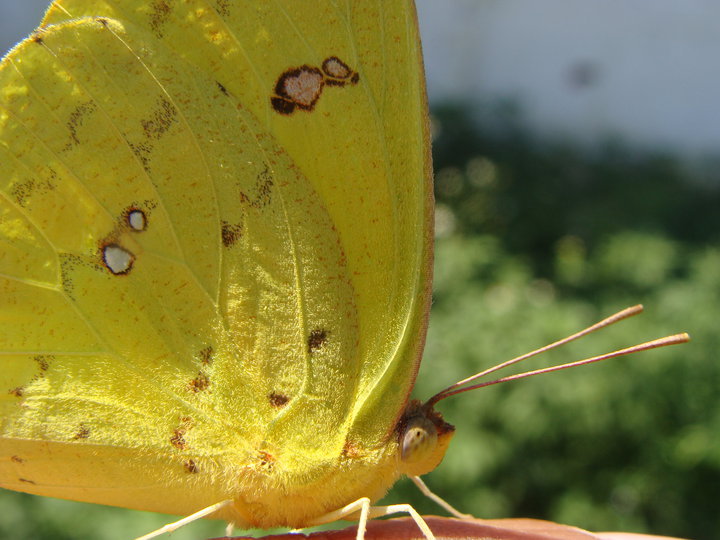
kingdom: Animalia
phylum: Arthropoda
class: Insecta
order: Lepidoptera
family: Pieridae
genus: Phoebis
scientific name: Phoebis marcellina
